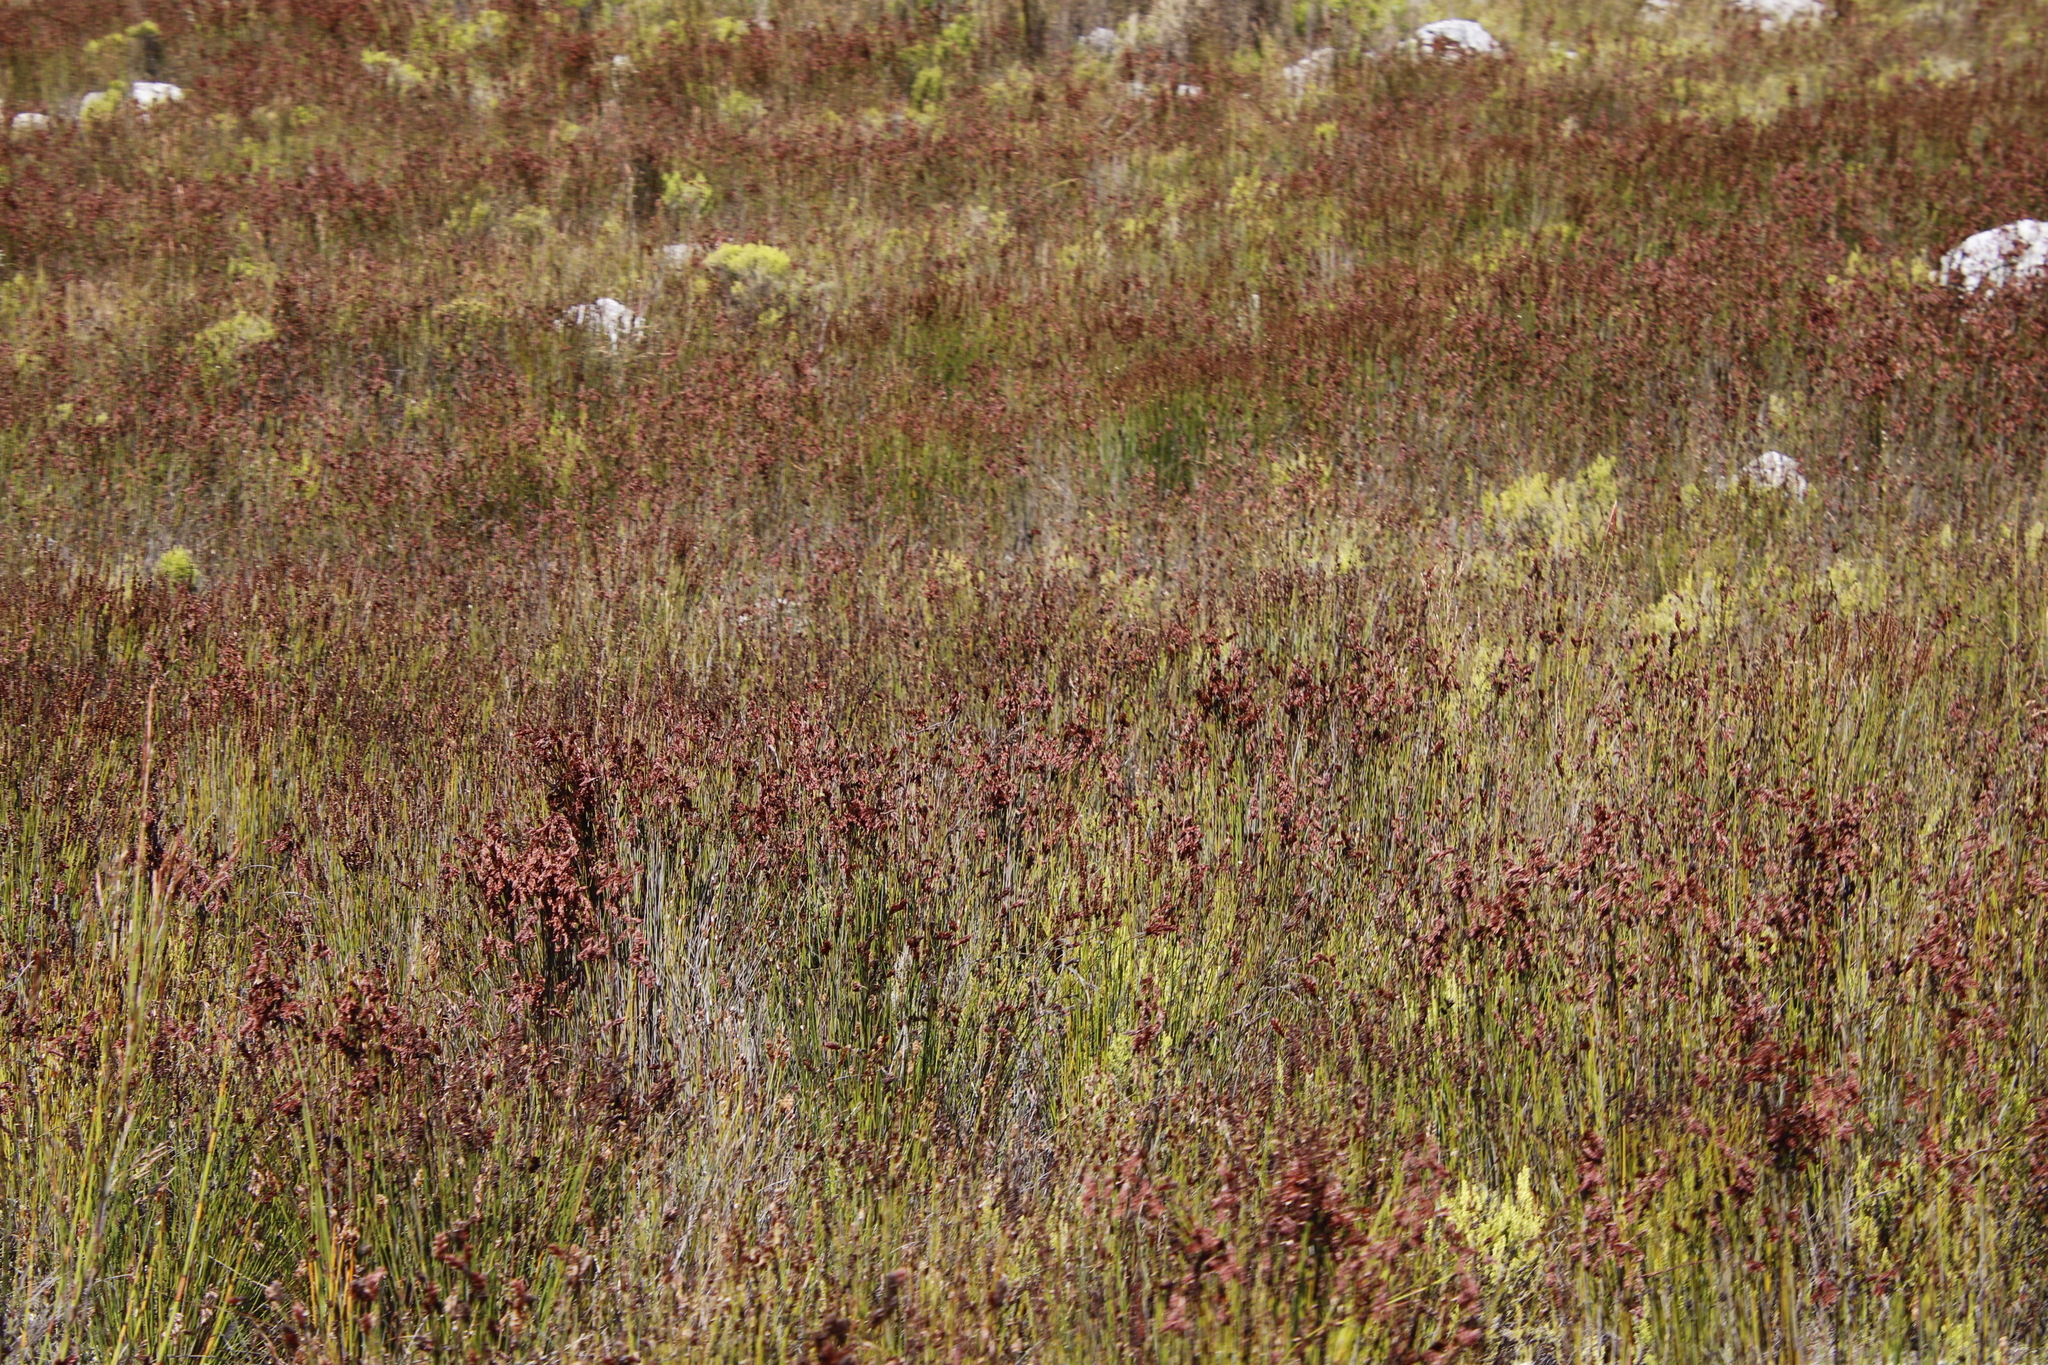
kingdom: Plantae
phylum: Tracheophyta
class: Liliopsida
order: Poales
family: Restionaceae
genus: Restio
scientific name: Restio bifarius
